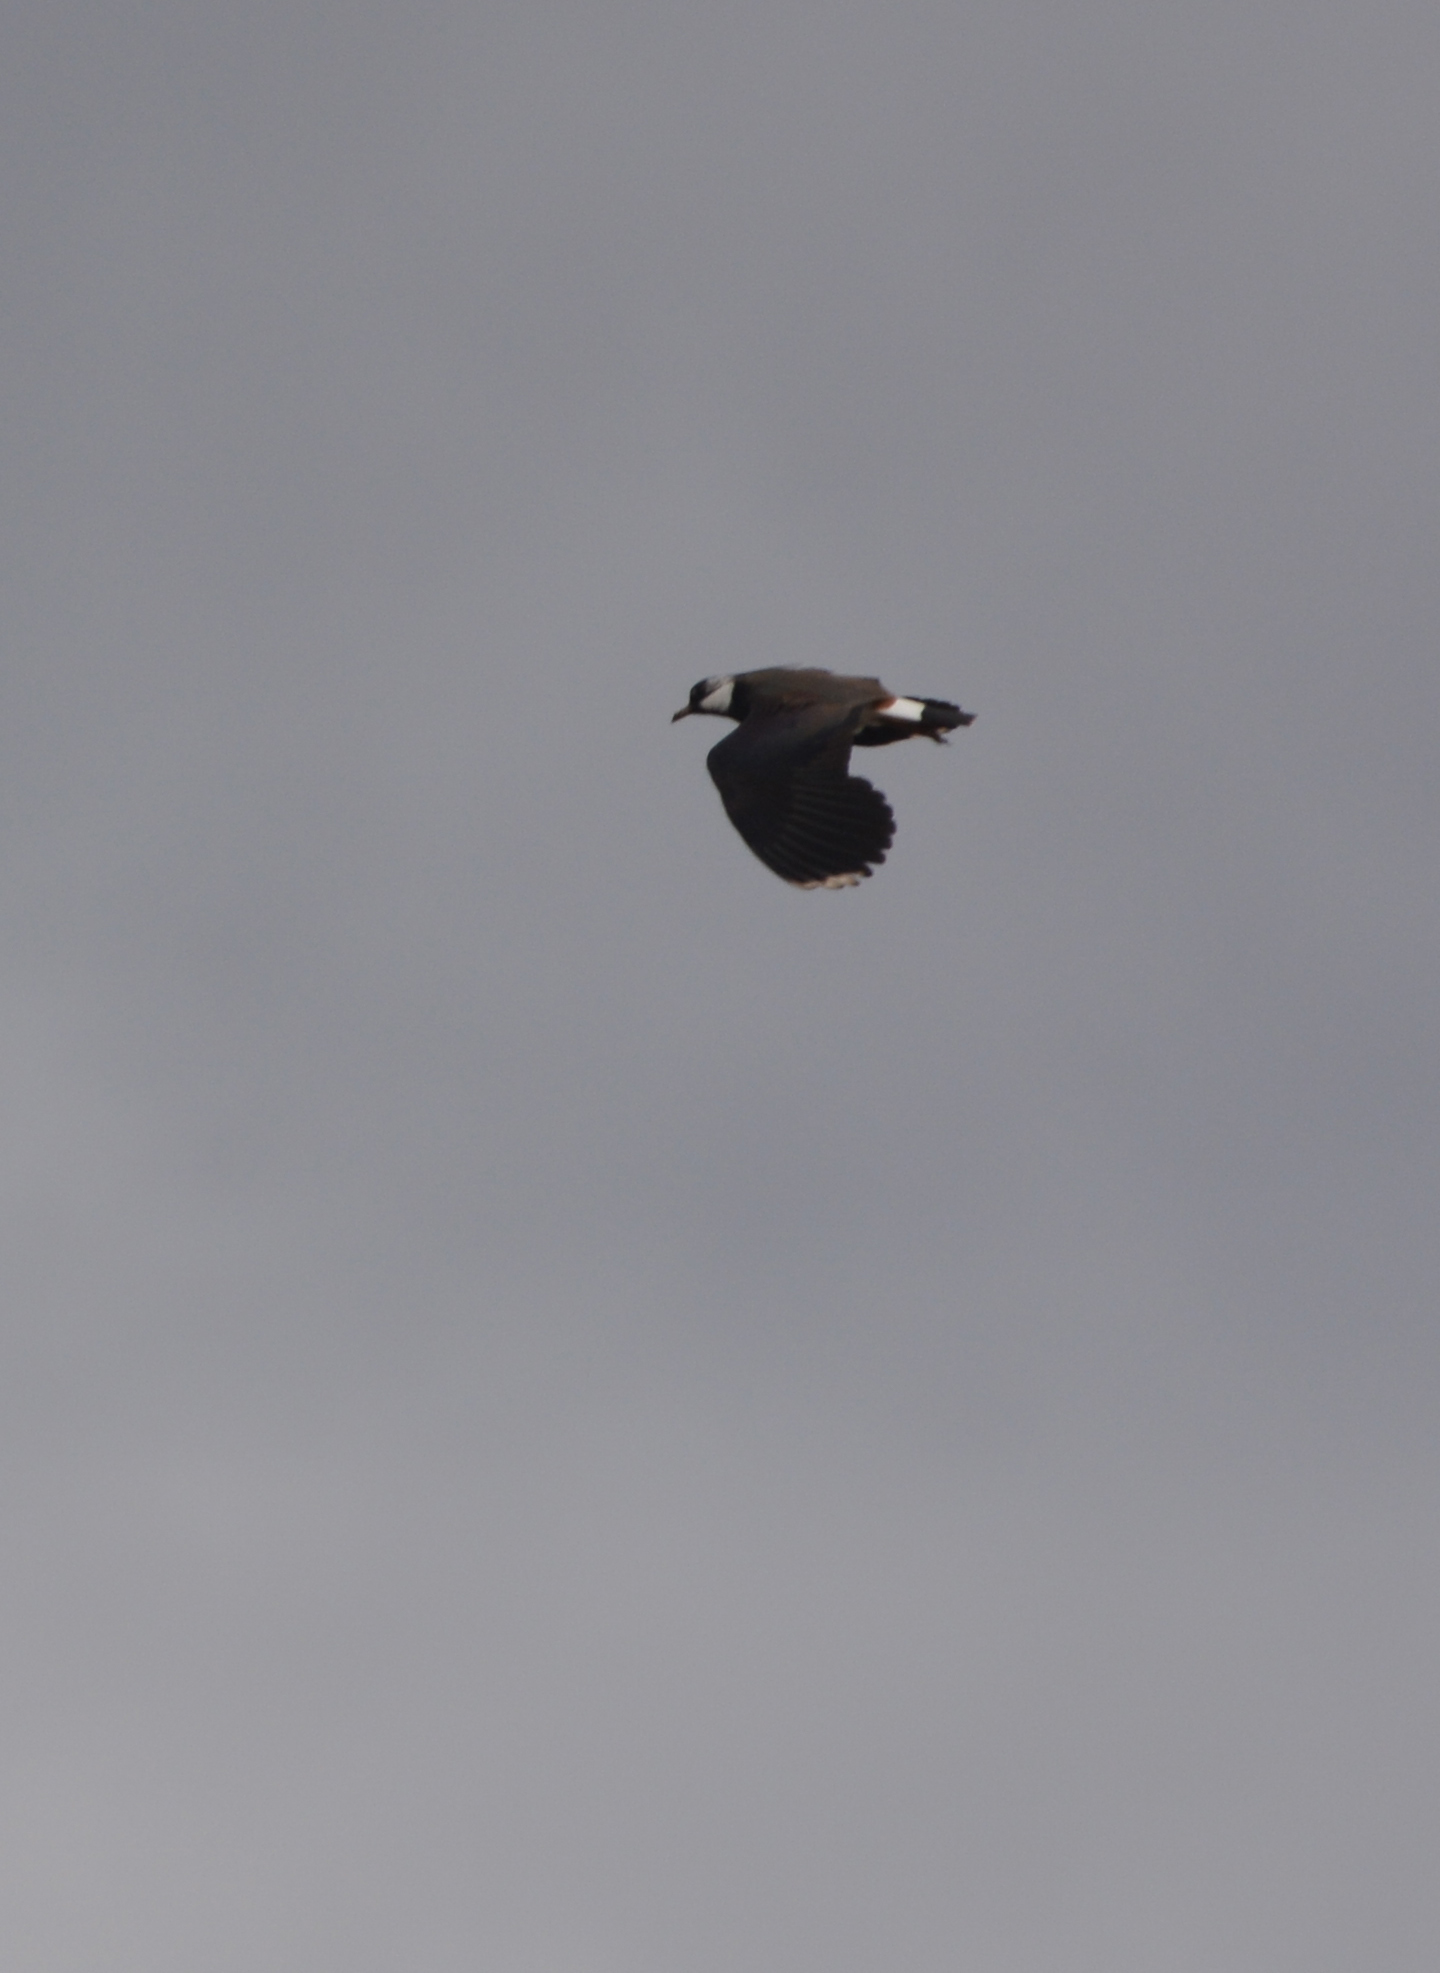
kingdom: Animalia
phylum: Chordata
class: Aves
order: Charadriiformes
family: Charadriidae
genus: Vanellus
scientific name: Vanellus vanellus
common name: Northern lapwing
